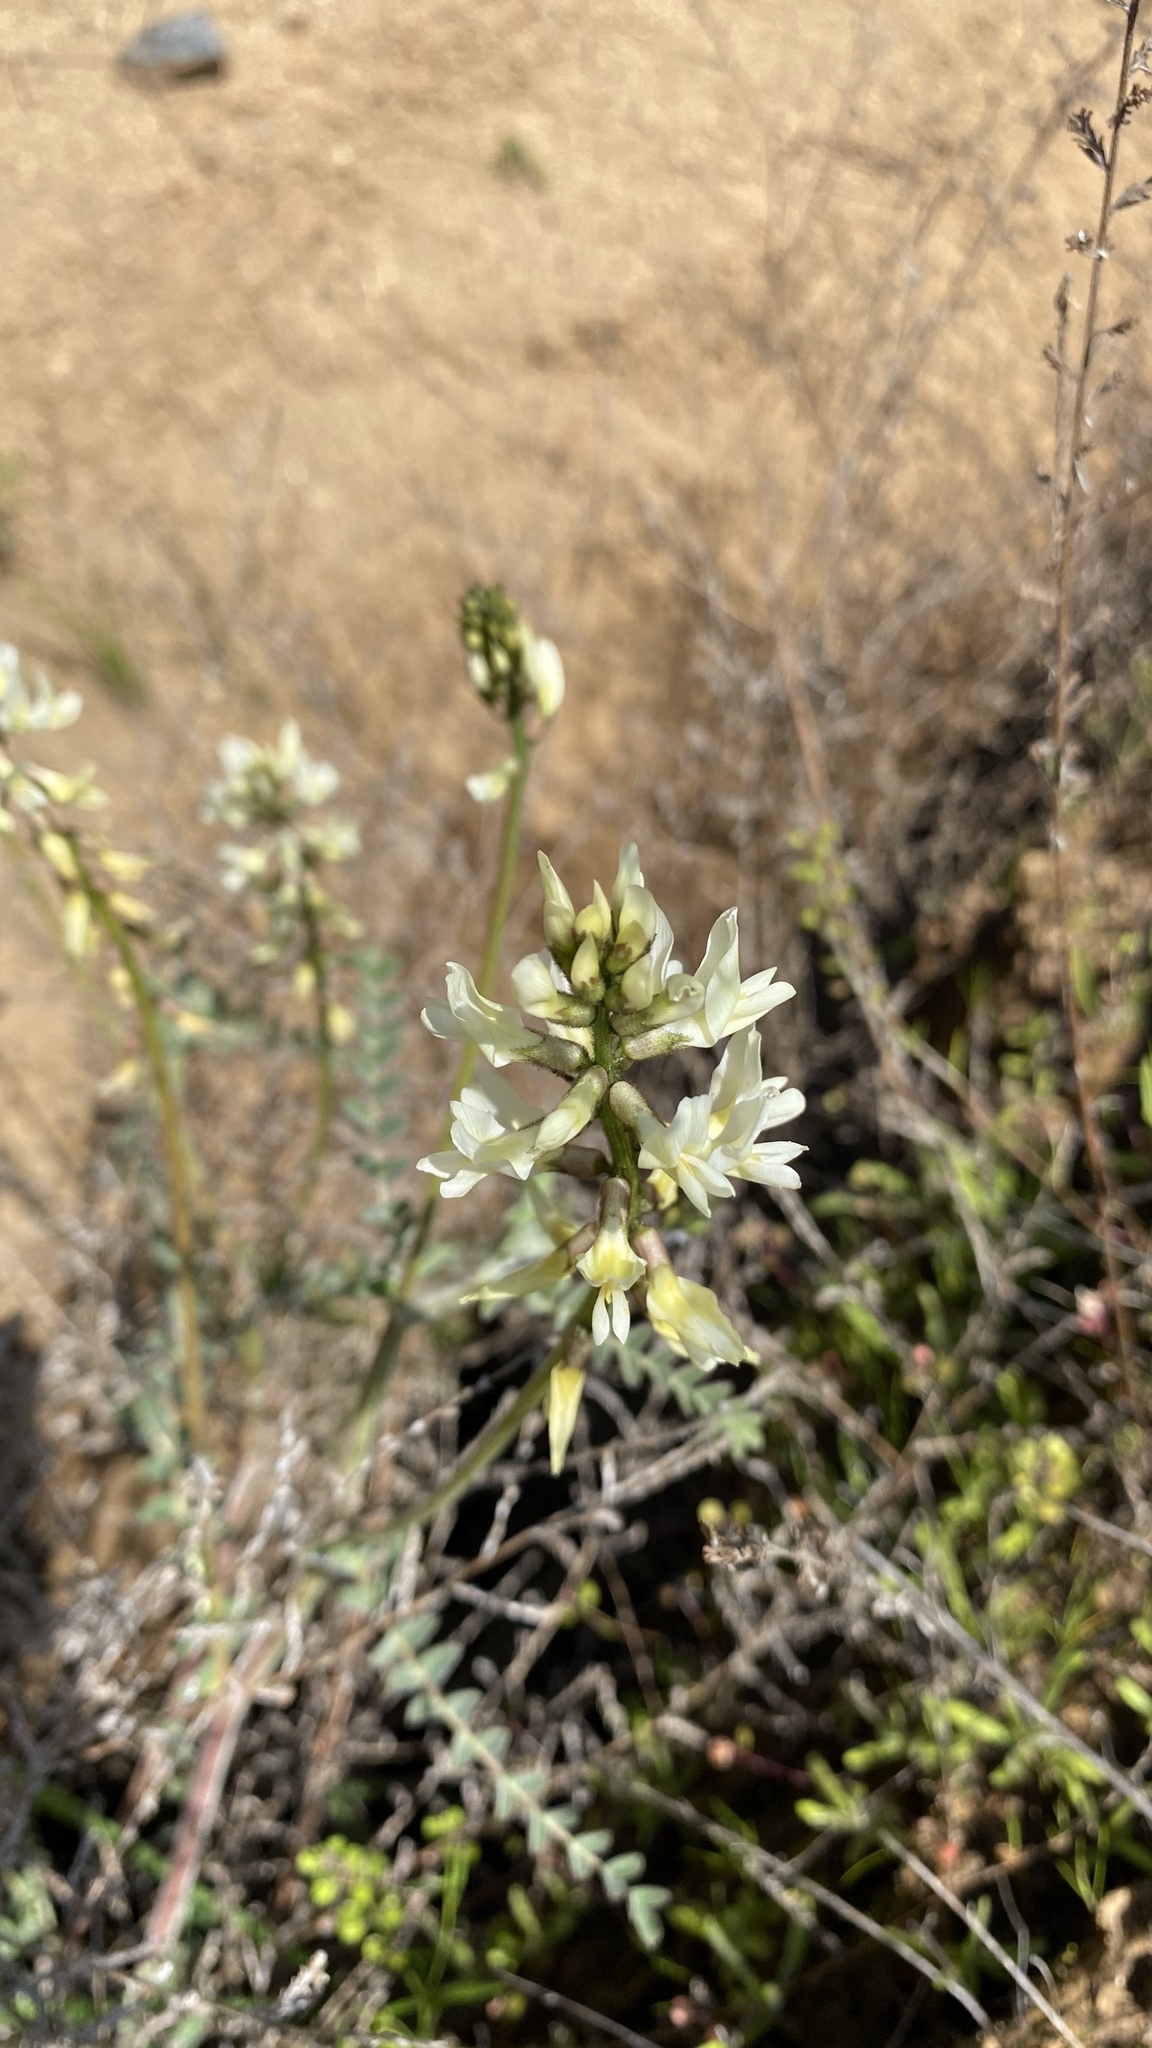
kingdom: Plantae
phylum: Tracheophyta
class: Magnoliopsida
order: Fabales
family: Fabaceae
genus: Astragalus
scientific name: Astragalus congdonii
